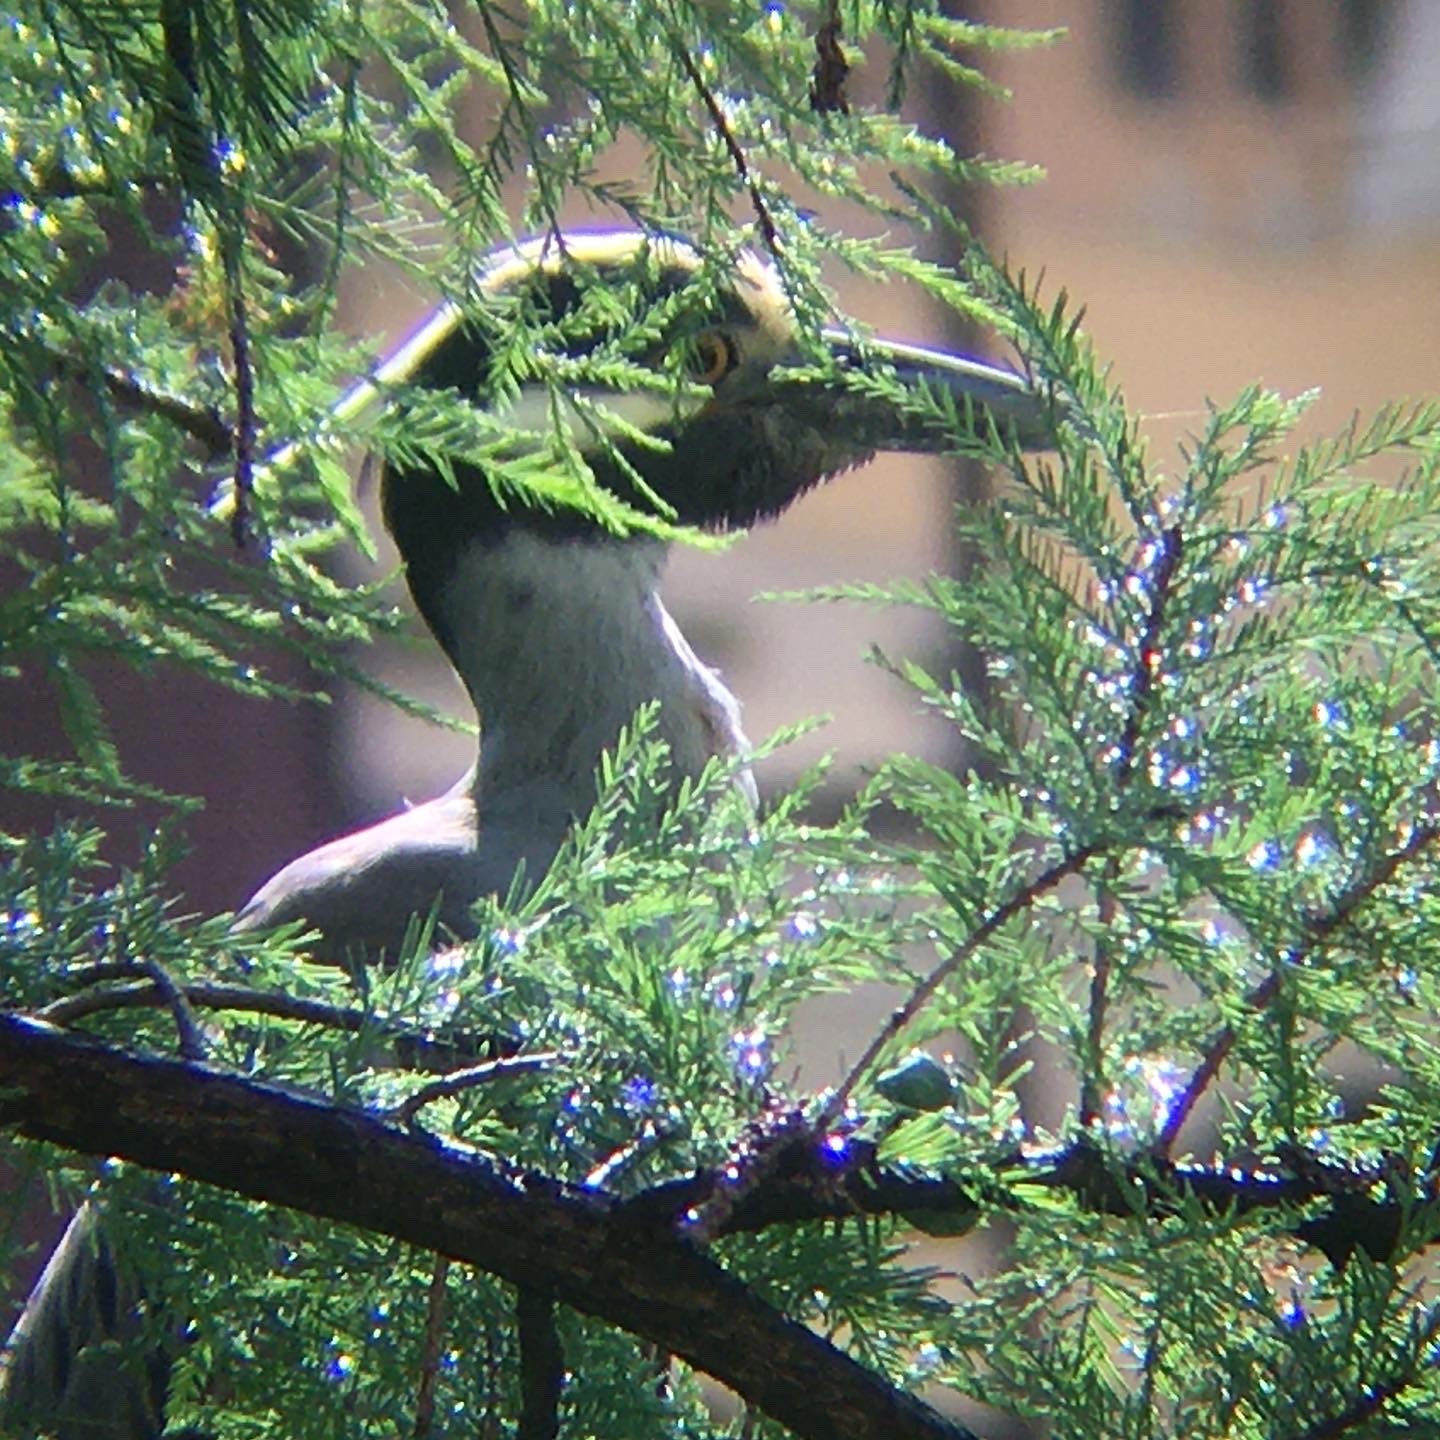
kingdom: Animalia
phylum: Chordata
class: Aves
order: Pelecaniformes
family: Ardeidae
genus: Nyctanassa
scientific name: Nyctanassa violacea
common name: Yellow-crowned night heron
